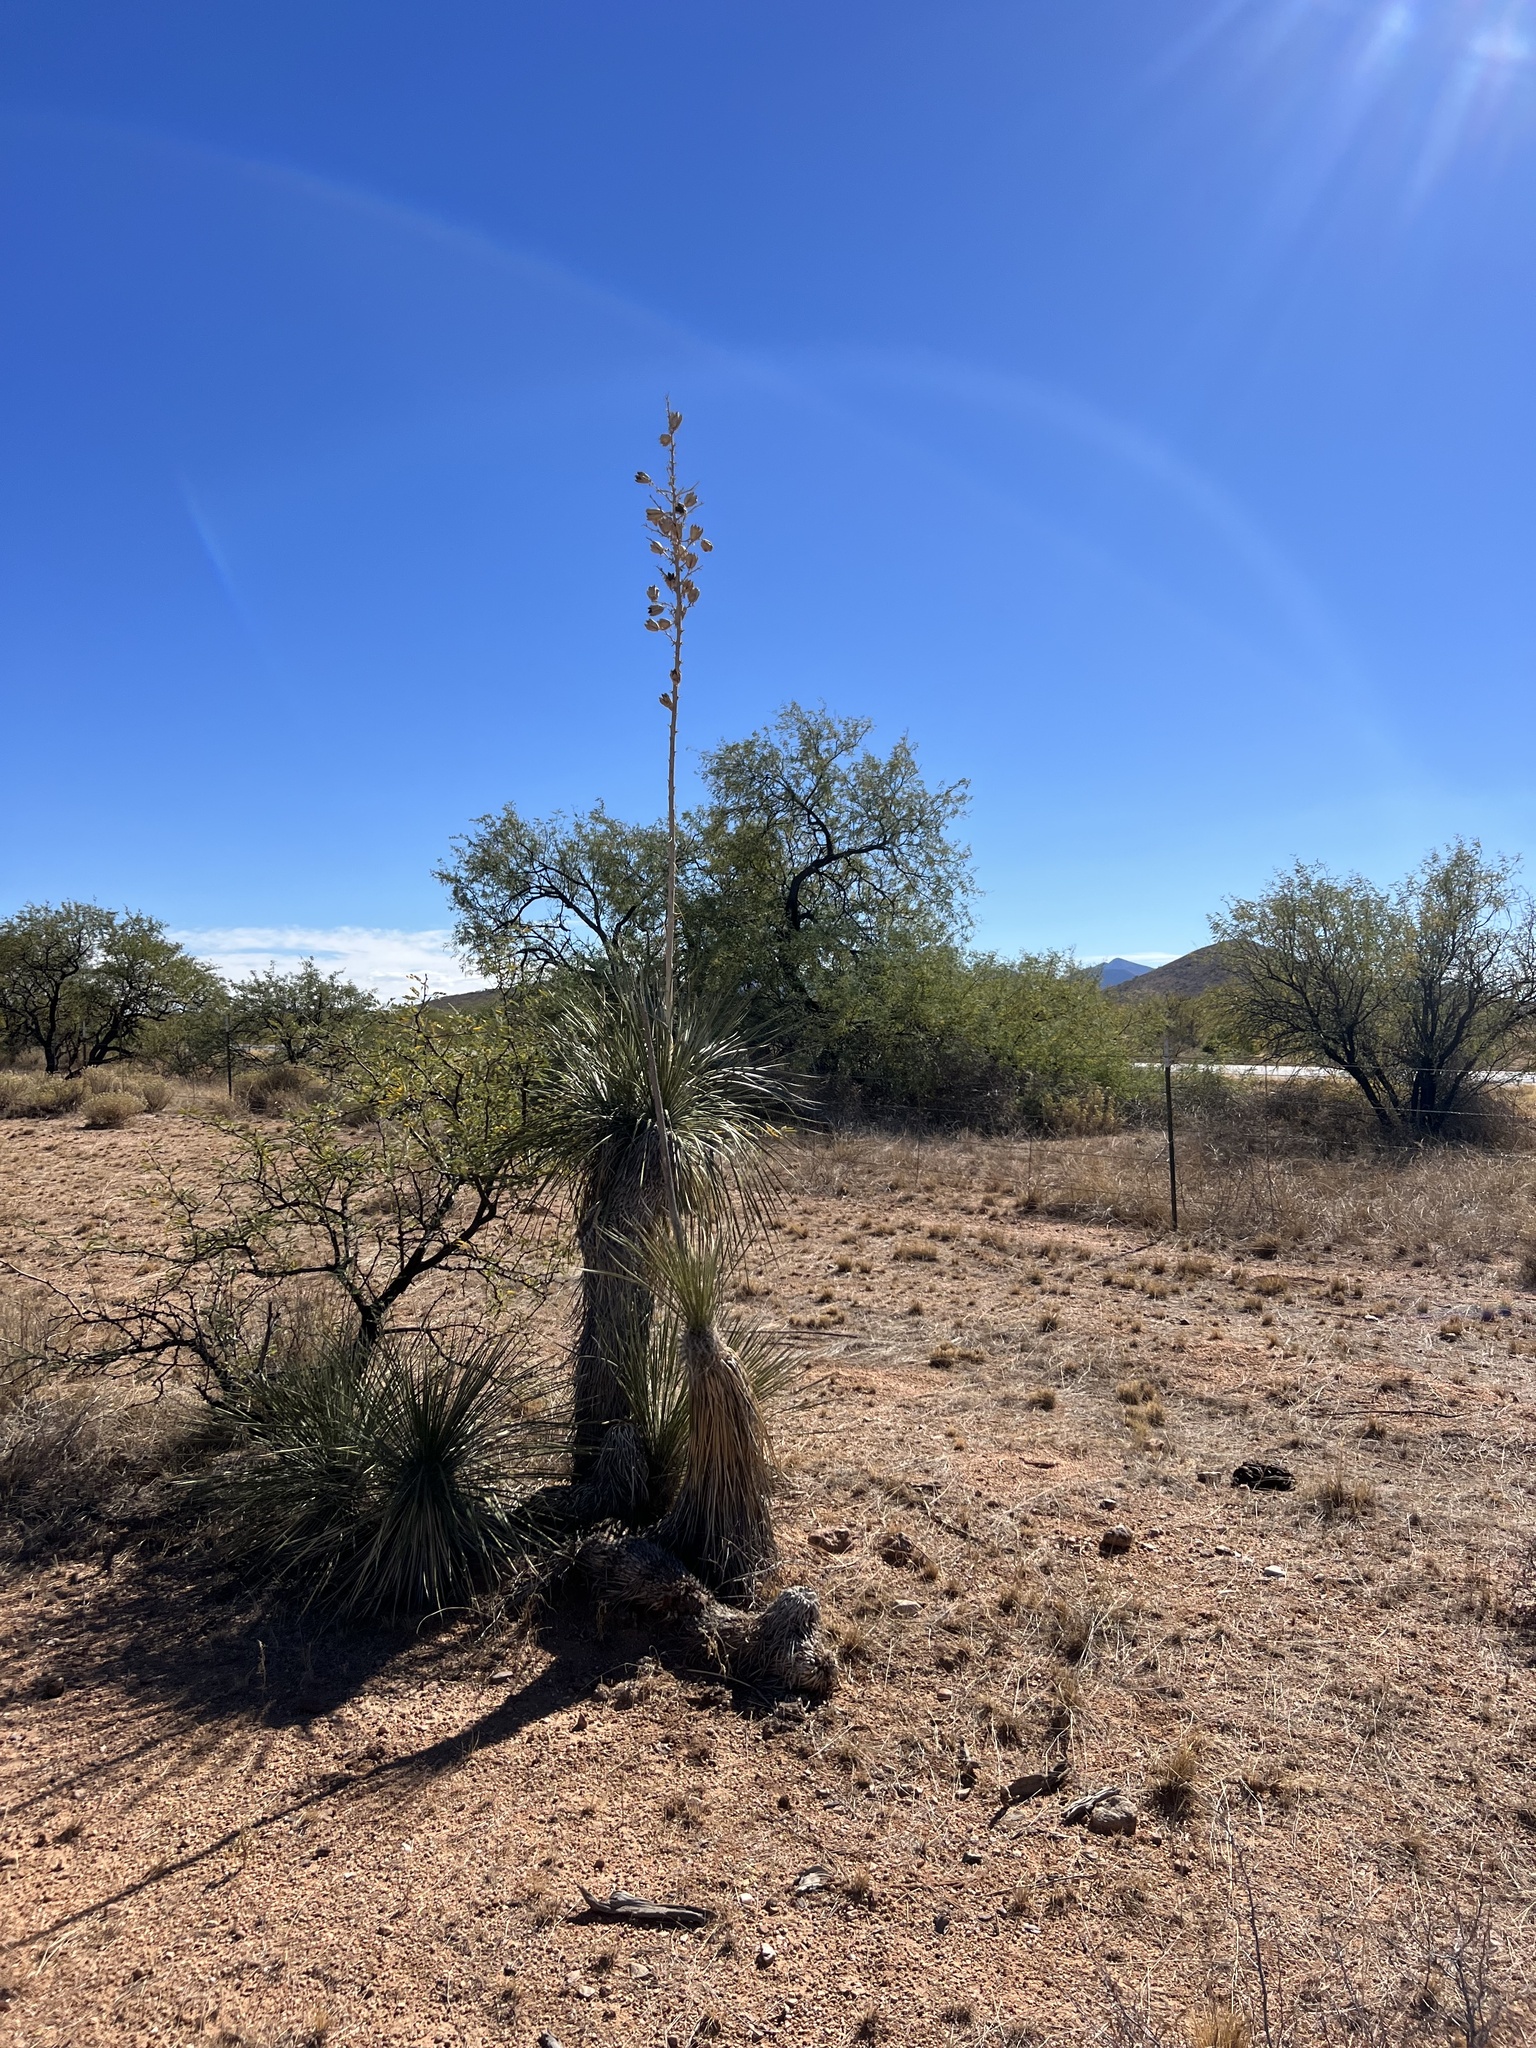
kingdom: Plantae
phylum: Tracheophyta
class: Liliopsida
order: Asparagales
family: Asparagaceae
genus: Yucca
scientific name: Yucca elata
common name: Palmella
